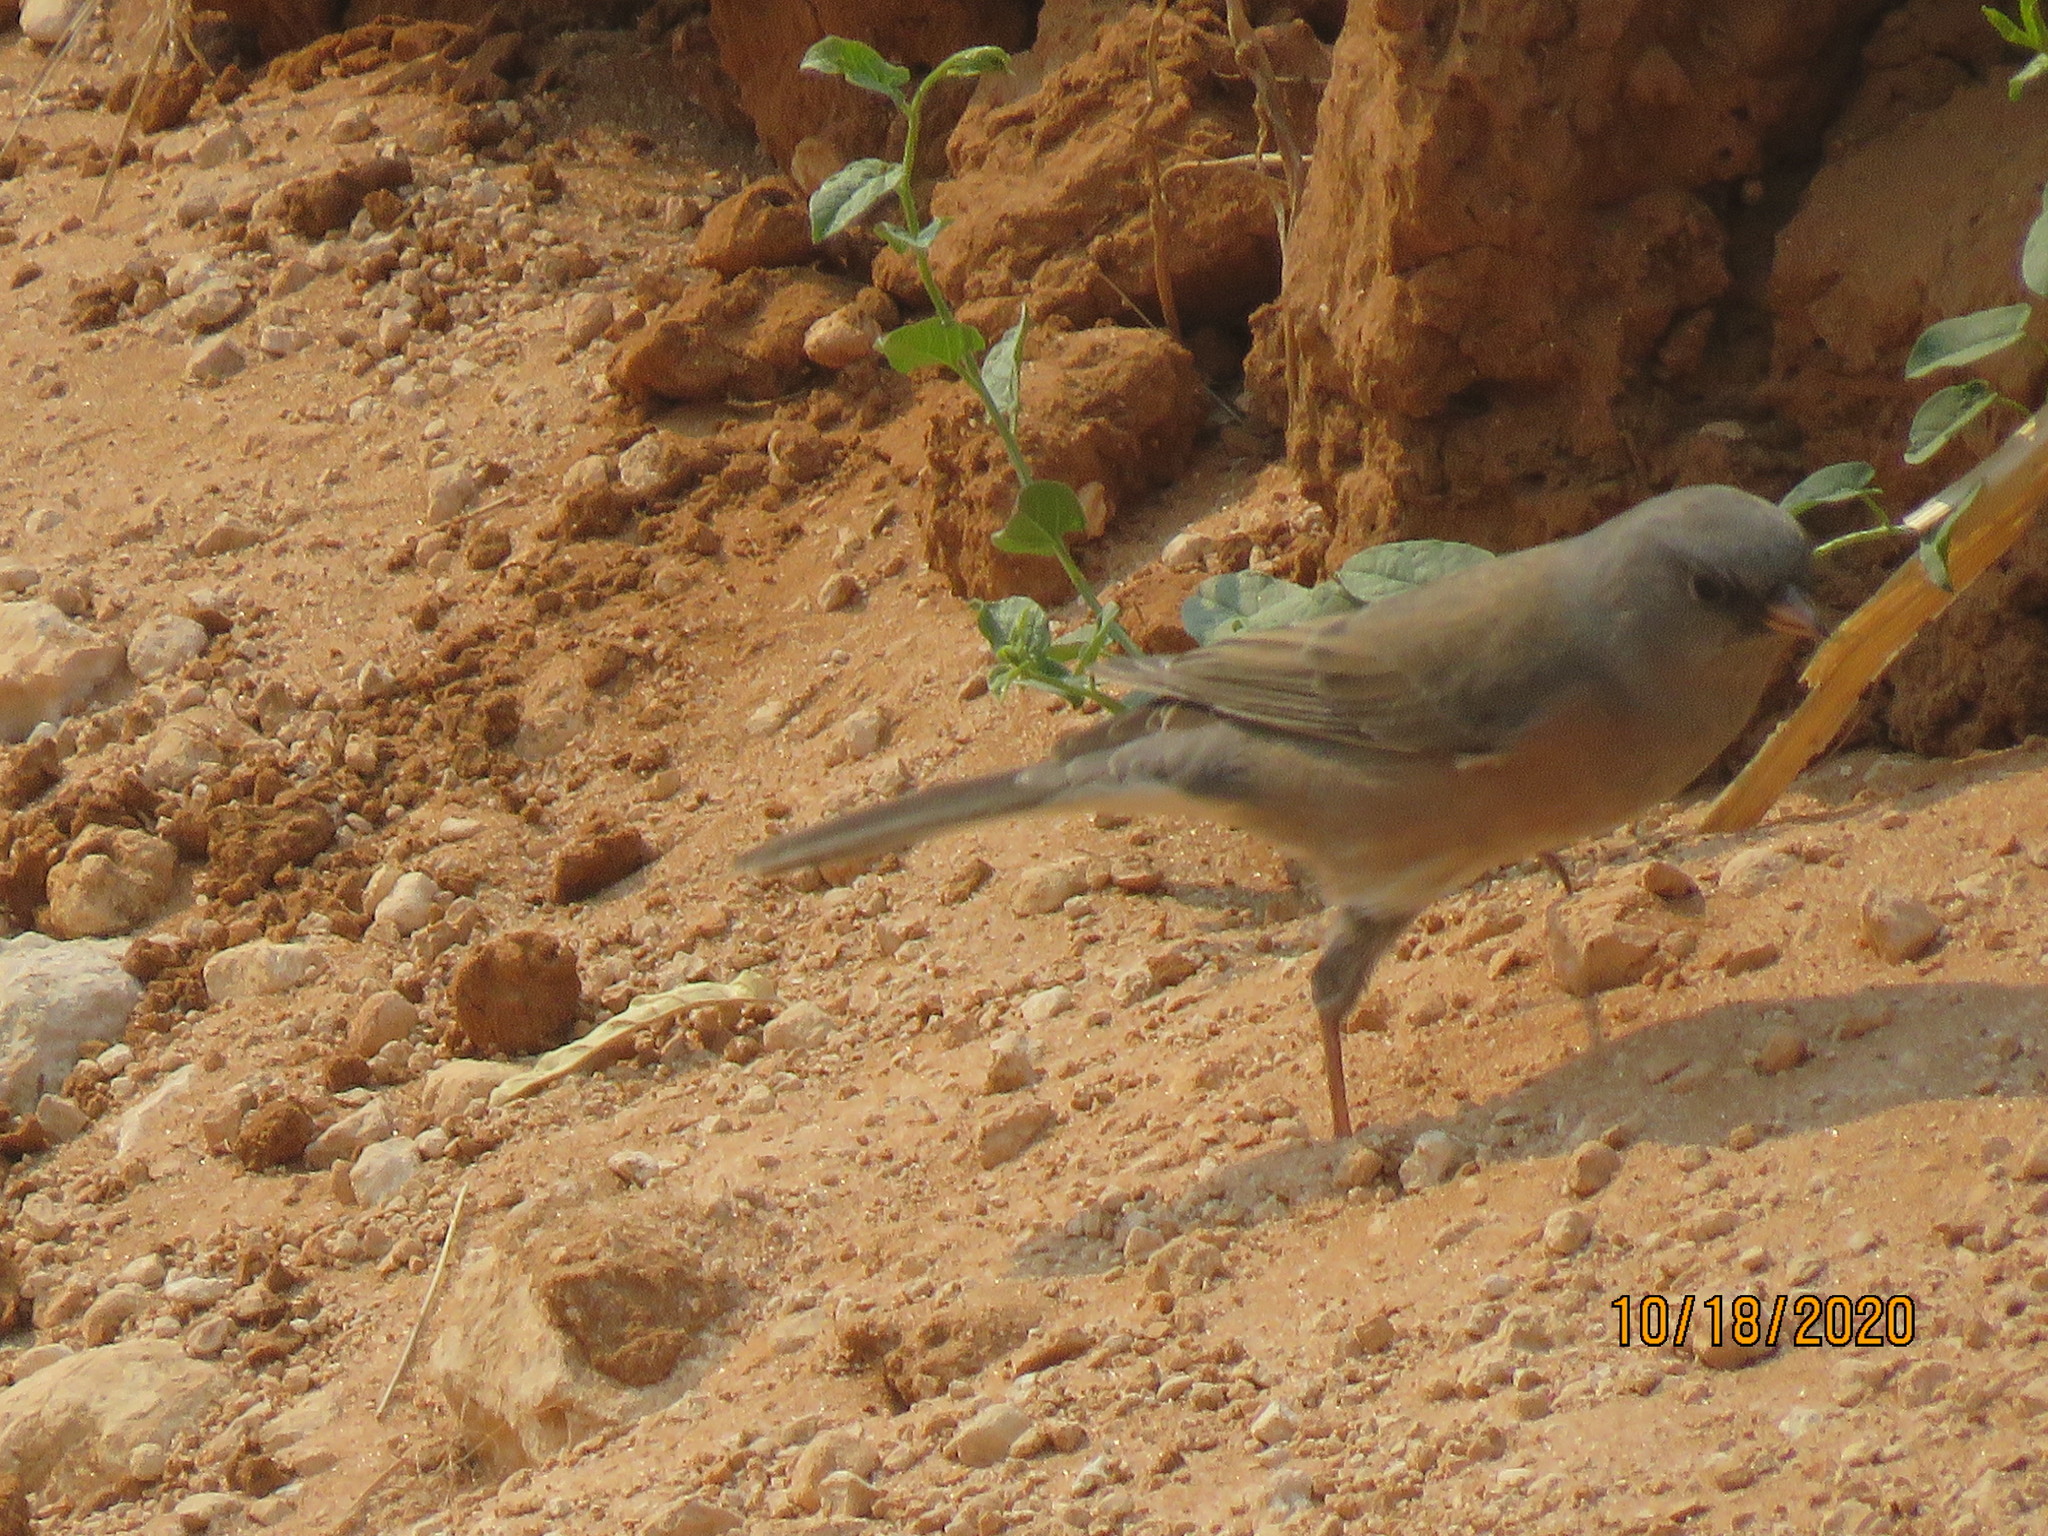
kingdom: Animalia
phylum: Chordata
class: Aves
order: Passeriformes
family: Passerellidae
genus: Junco
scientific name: Junco hyemalis
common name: Dark-eyed junco
